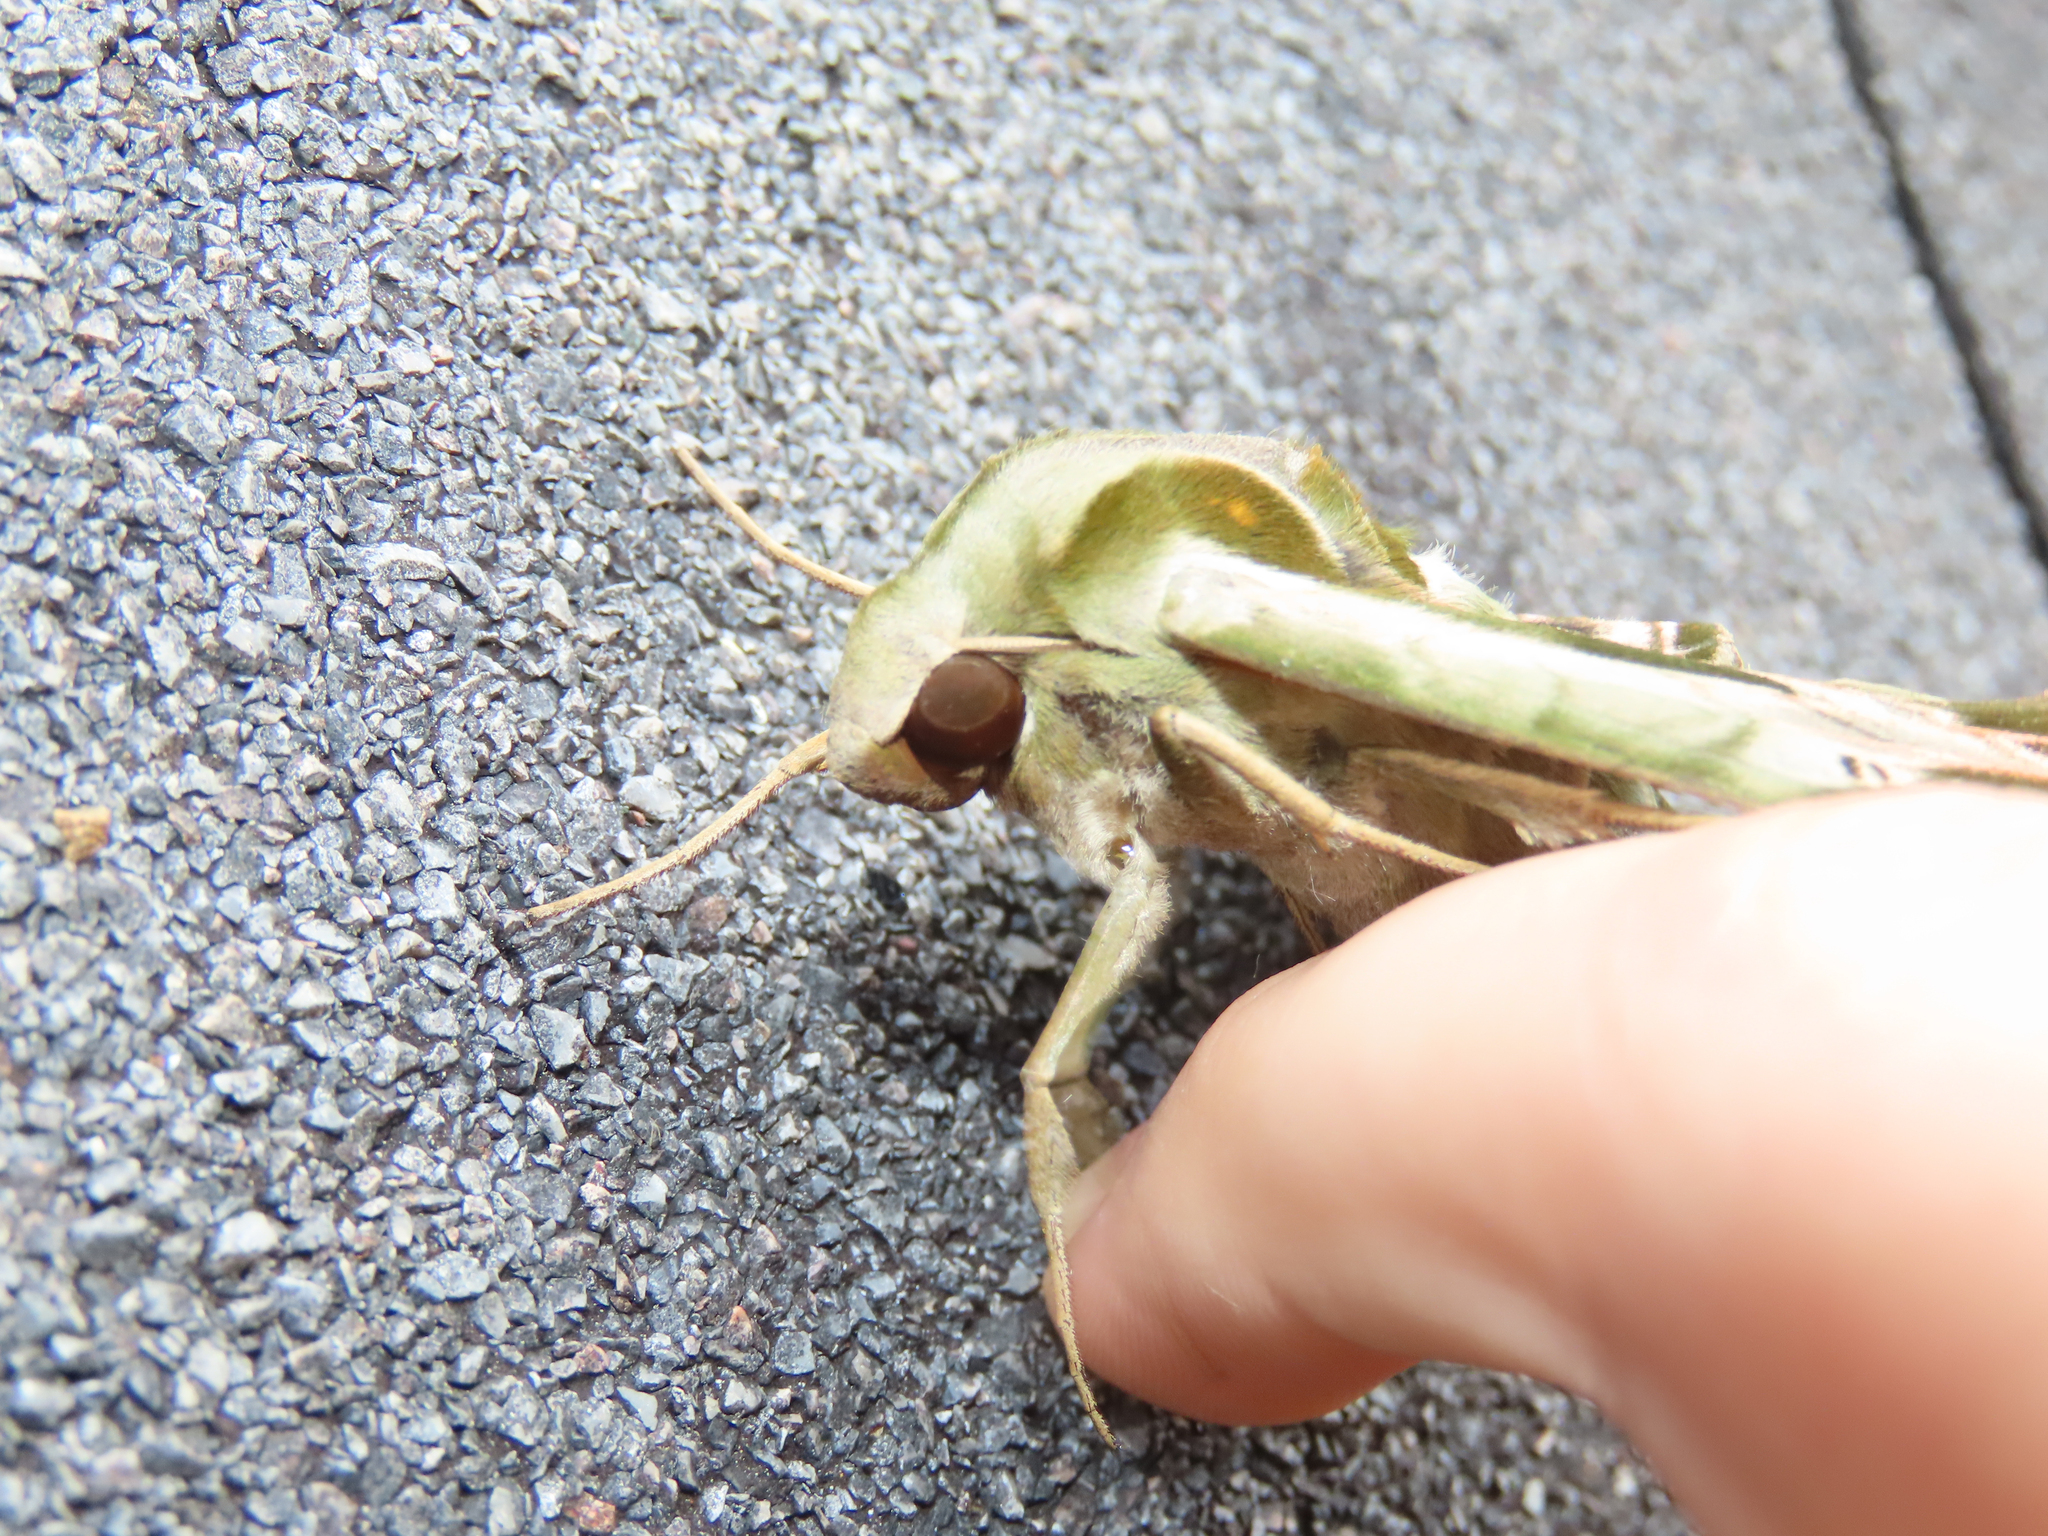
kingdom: Animalia
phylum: Arthropoda
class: Insecta
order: Lepidoptera
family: Sphingidae
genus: Eumorpha
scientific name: Eumorpha pandorus
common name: Pandora sphinx
